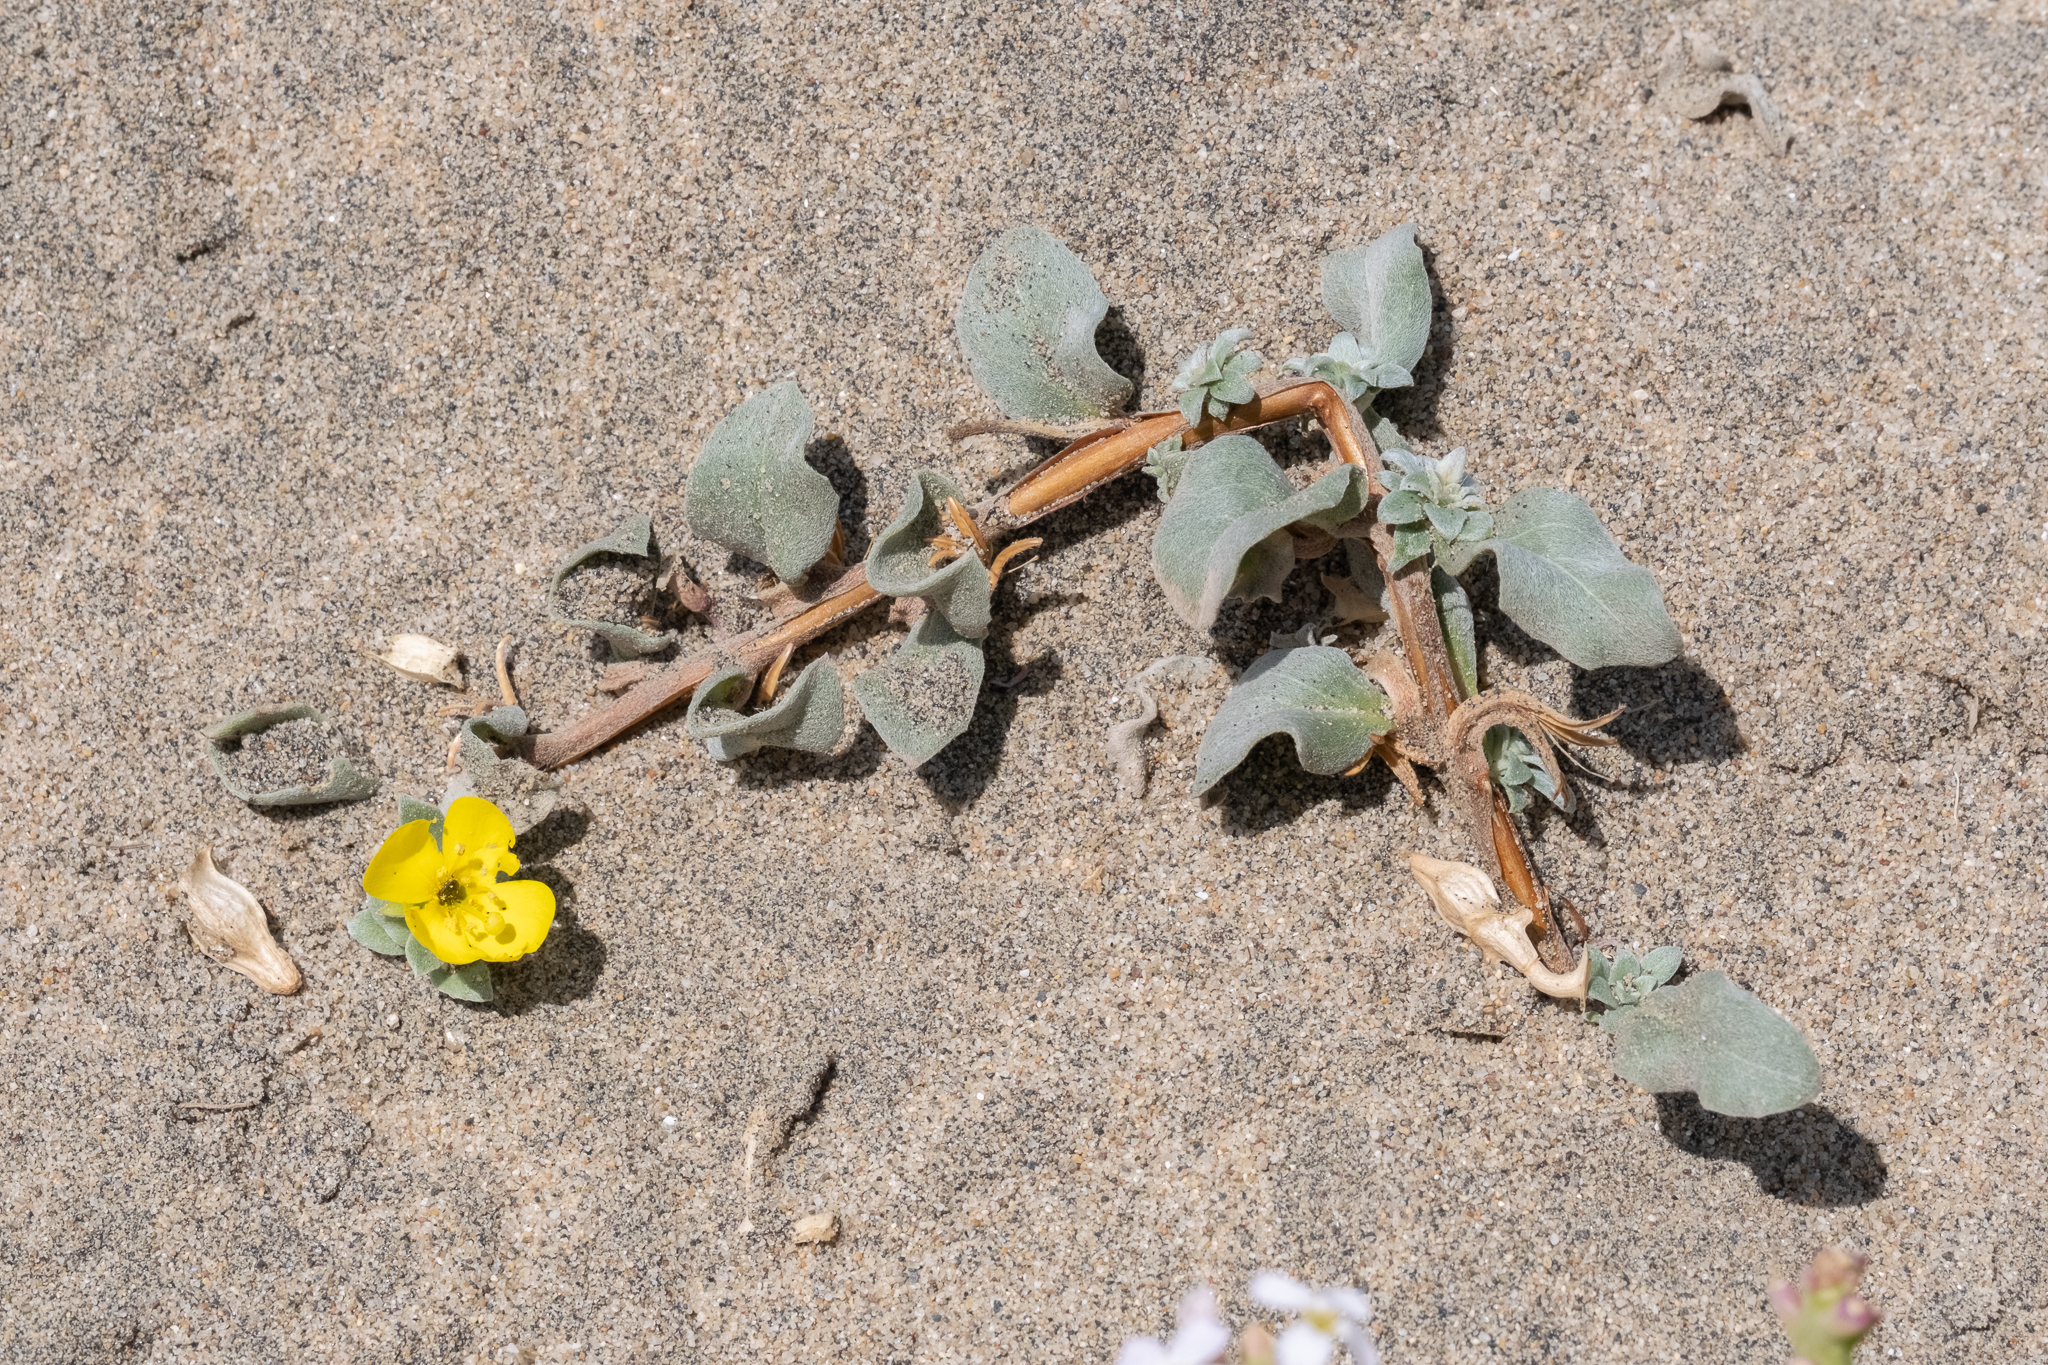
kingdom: Plantae
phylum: Tracheophyta
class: Magnoliopsida
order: Myrtales
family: Onagraceae
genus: Camissoniopsis
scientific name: Camissoniopsis cheiranthifolia
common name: Beach suncup
